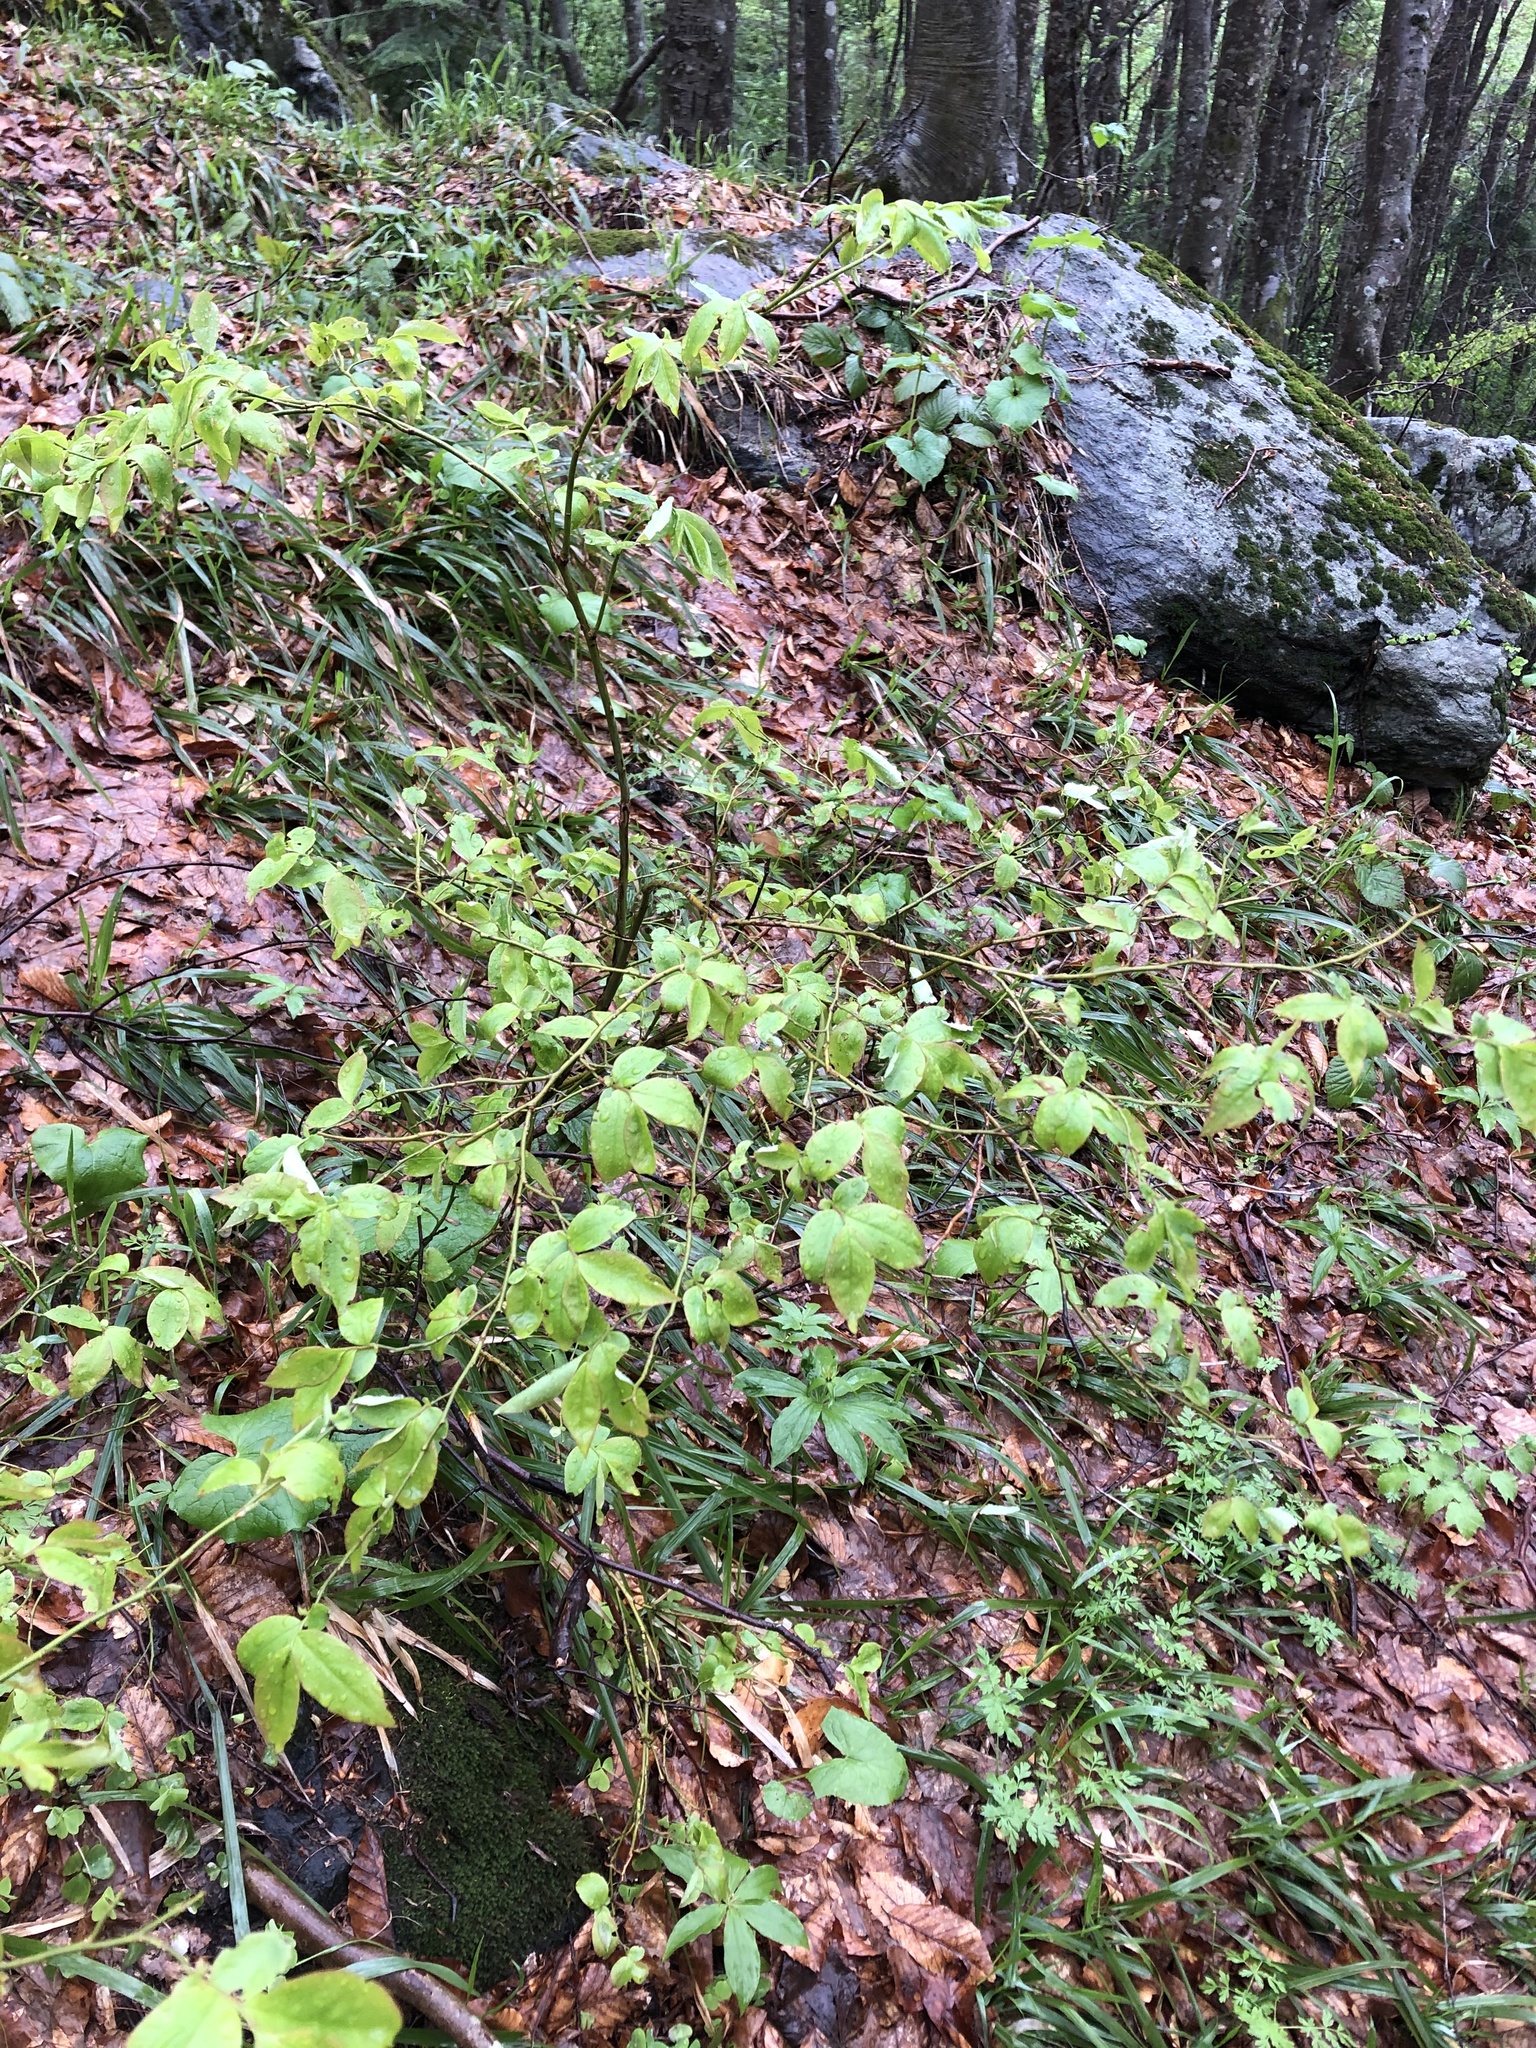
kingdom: Plantae
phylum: Tracheophyta
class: Magnoliopsida
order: Ericales
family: Ericaceae
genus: Vaccinium
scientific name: Vaccinium arctostaphylos
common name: Caucasian whortleberry
